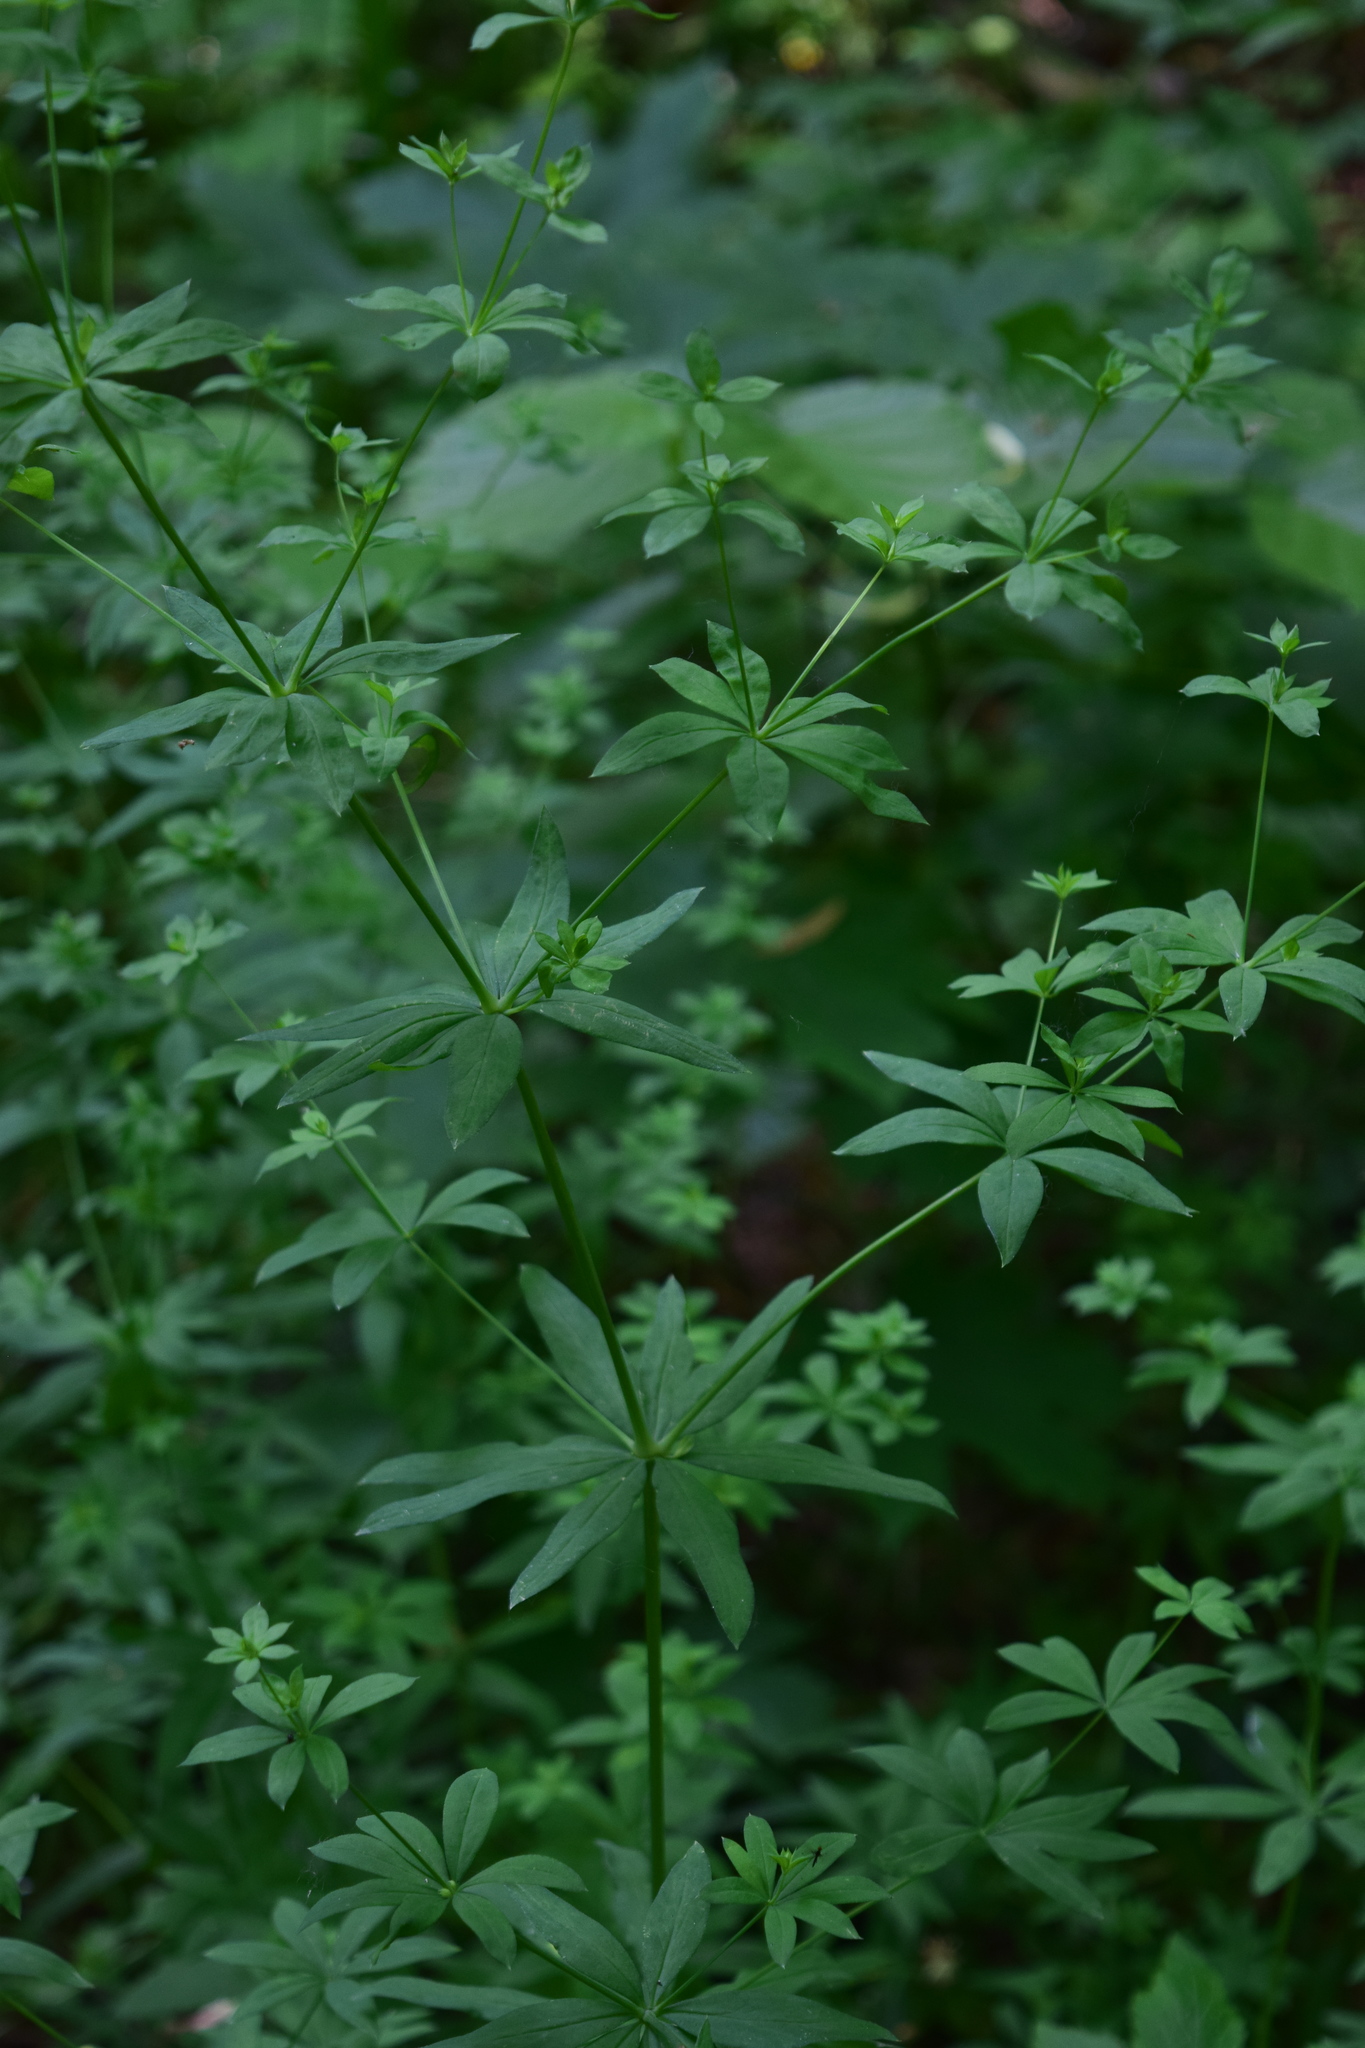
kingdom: Plantae
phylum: Tracheophyta
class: Magnoliopsida
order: Gentianales
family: Rubiaceae
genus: Galium
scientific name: Galium intermedium
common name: Bedstraw
